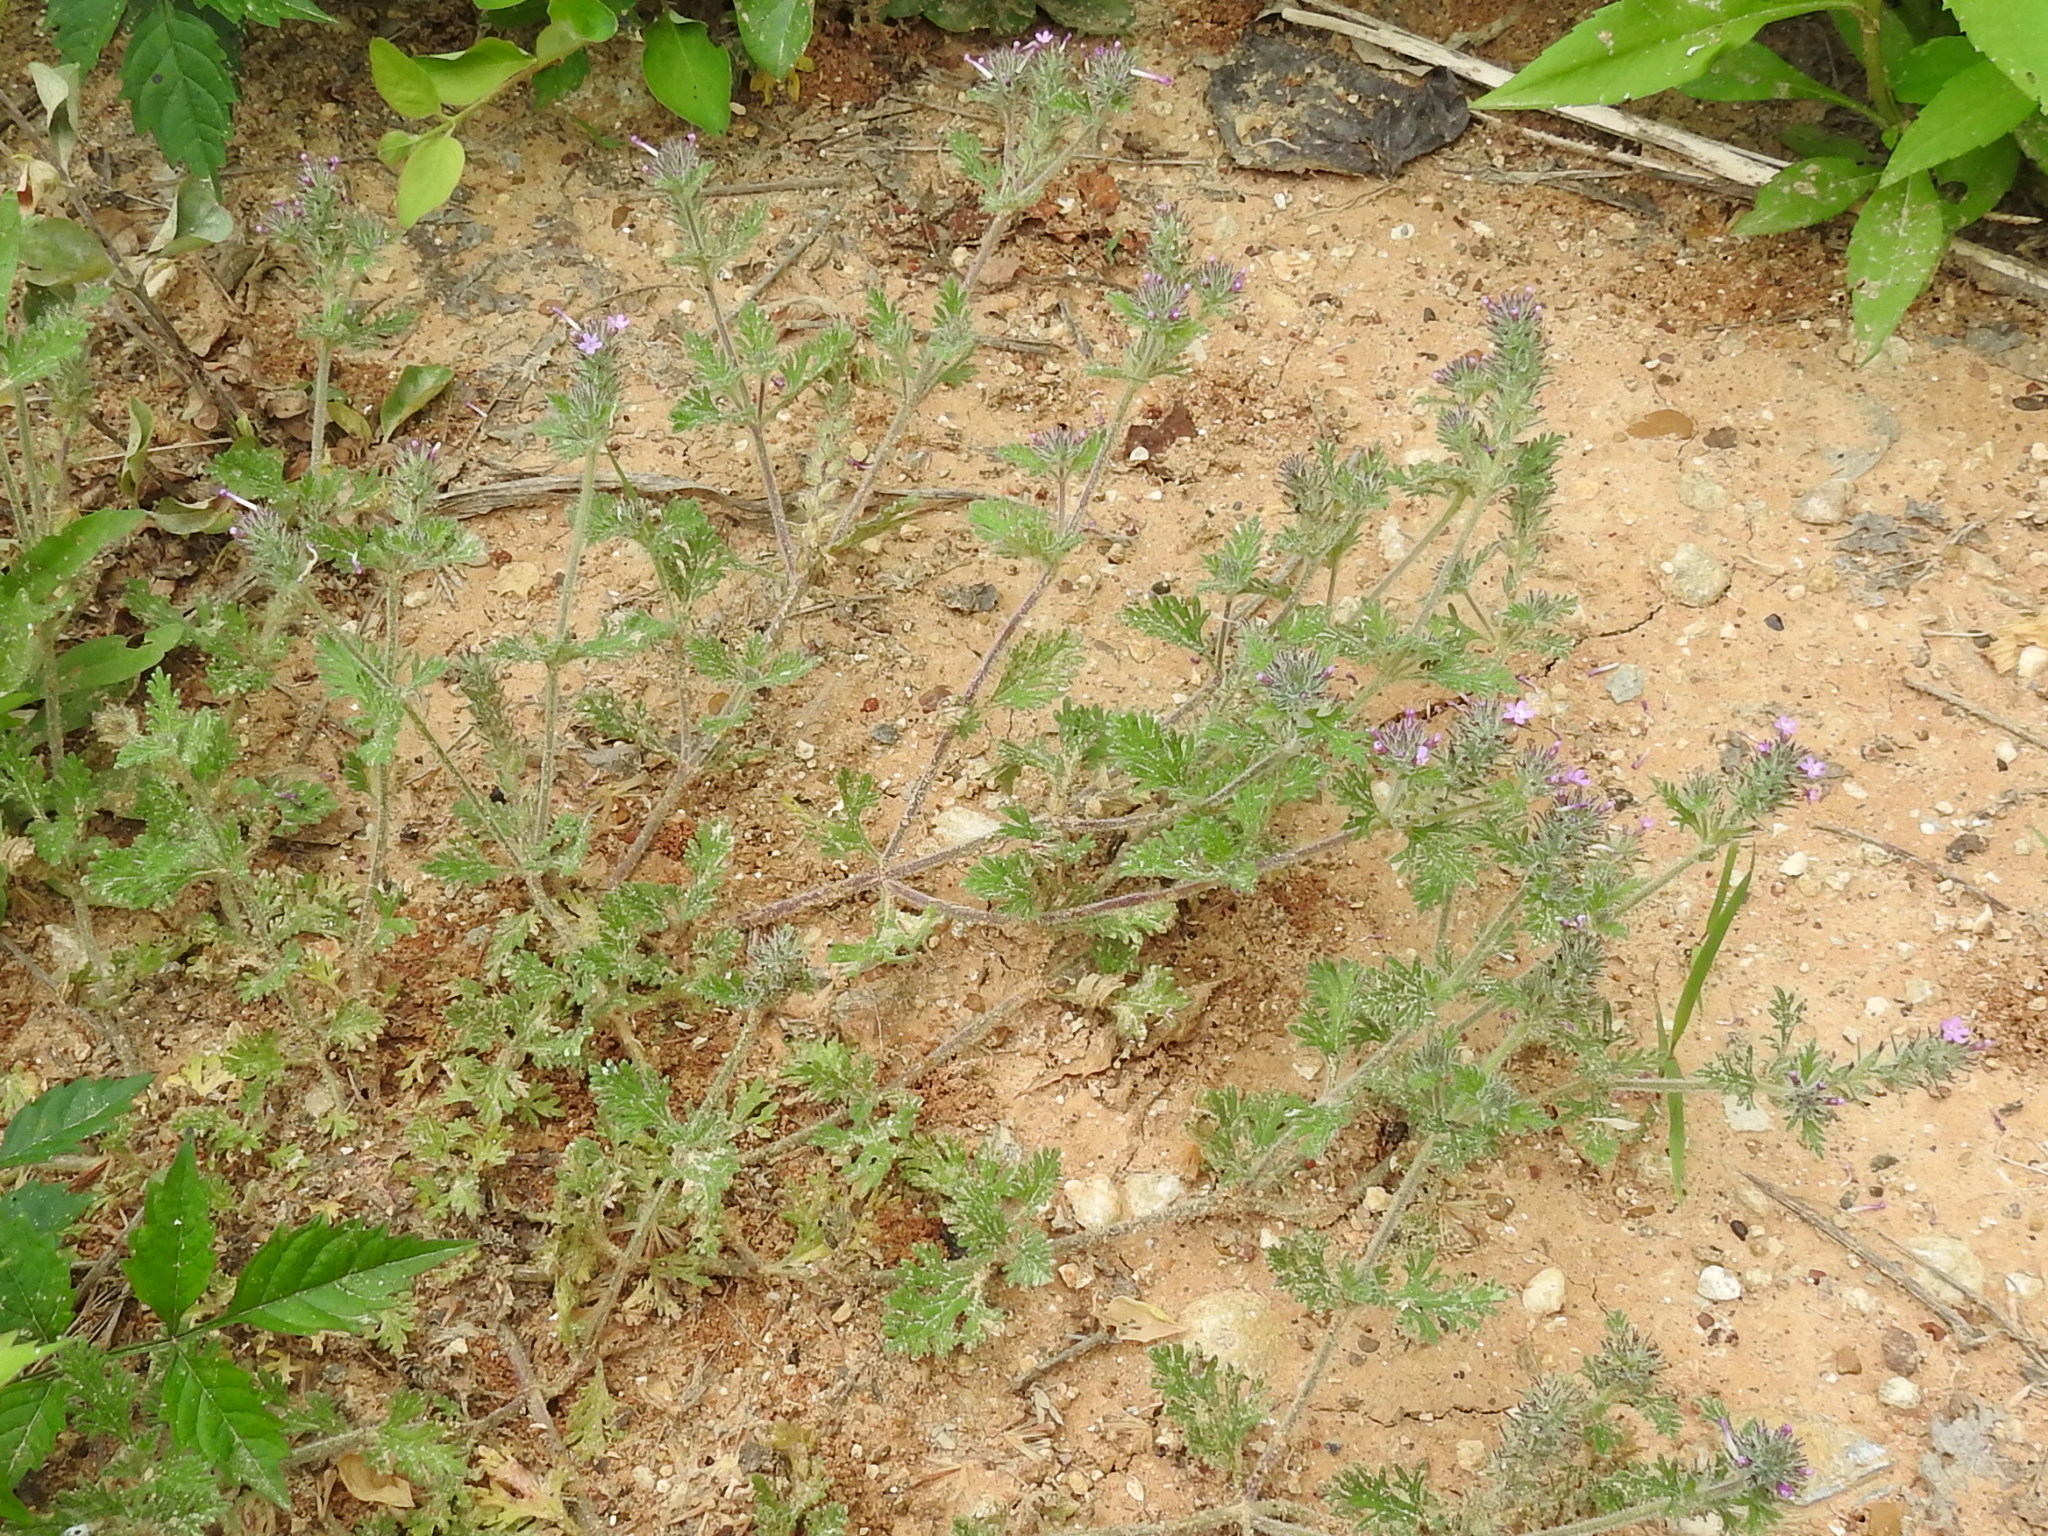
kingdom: Plantae
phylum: Tracheophyta
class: Magnoliopsida
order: Lamiales
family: Verbenaceae
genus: Verbena
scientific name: Verbena pumila
